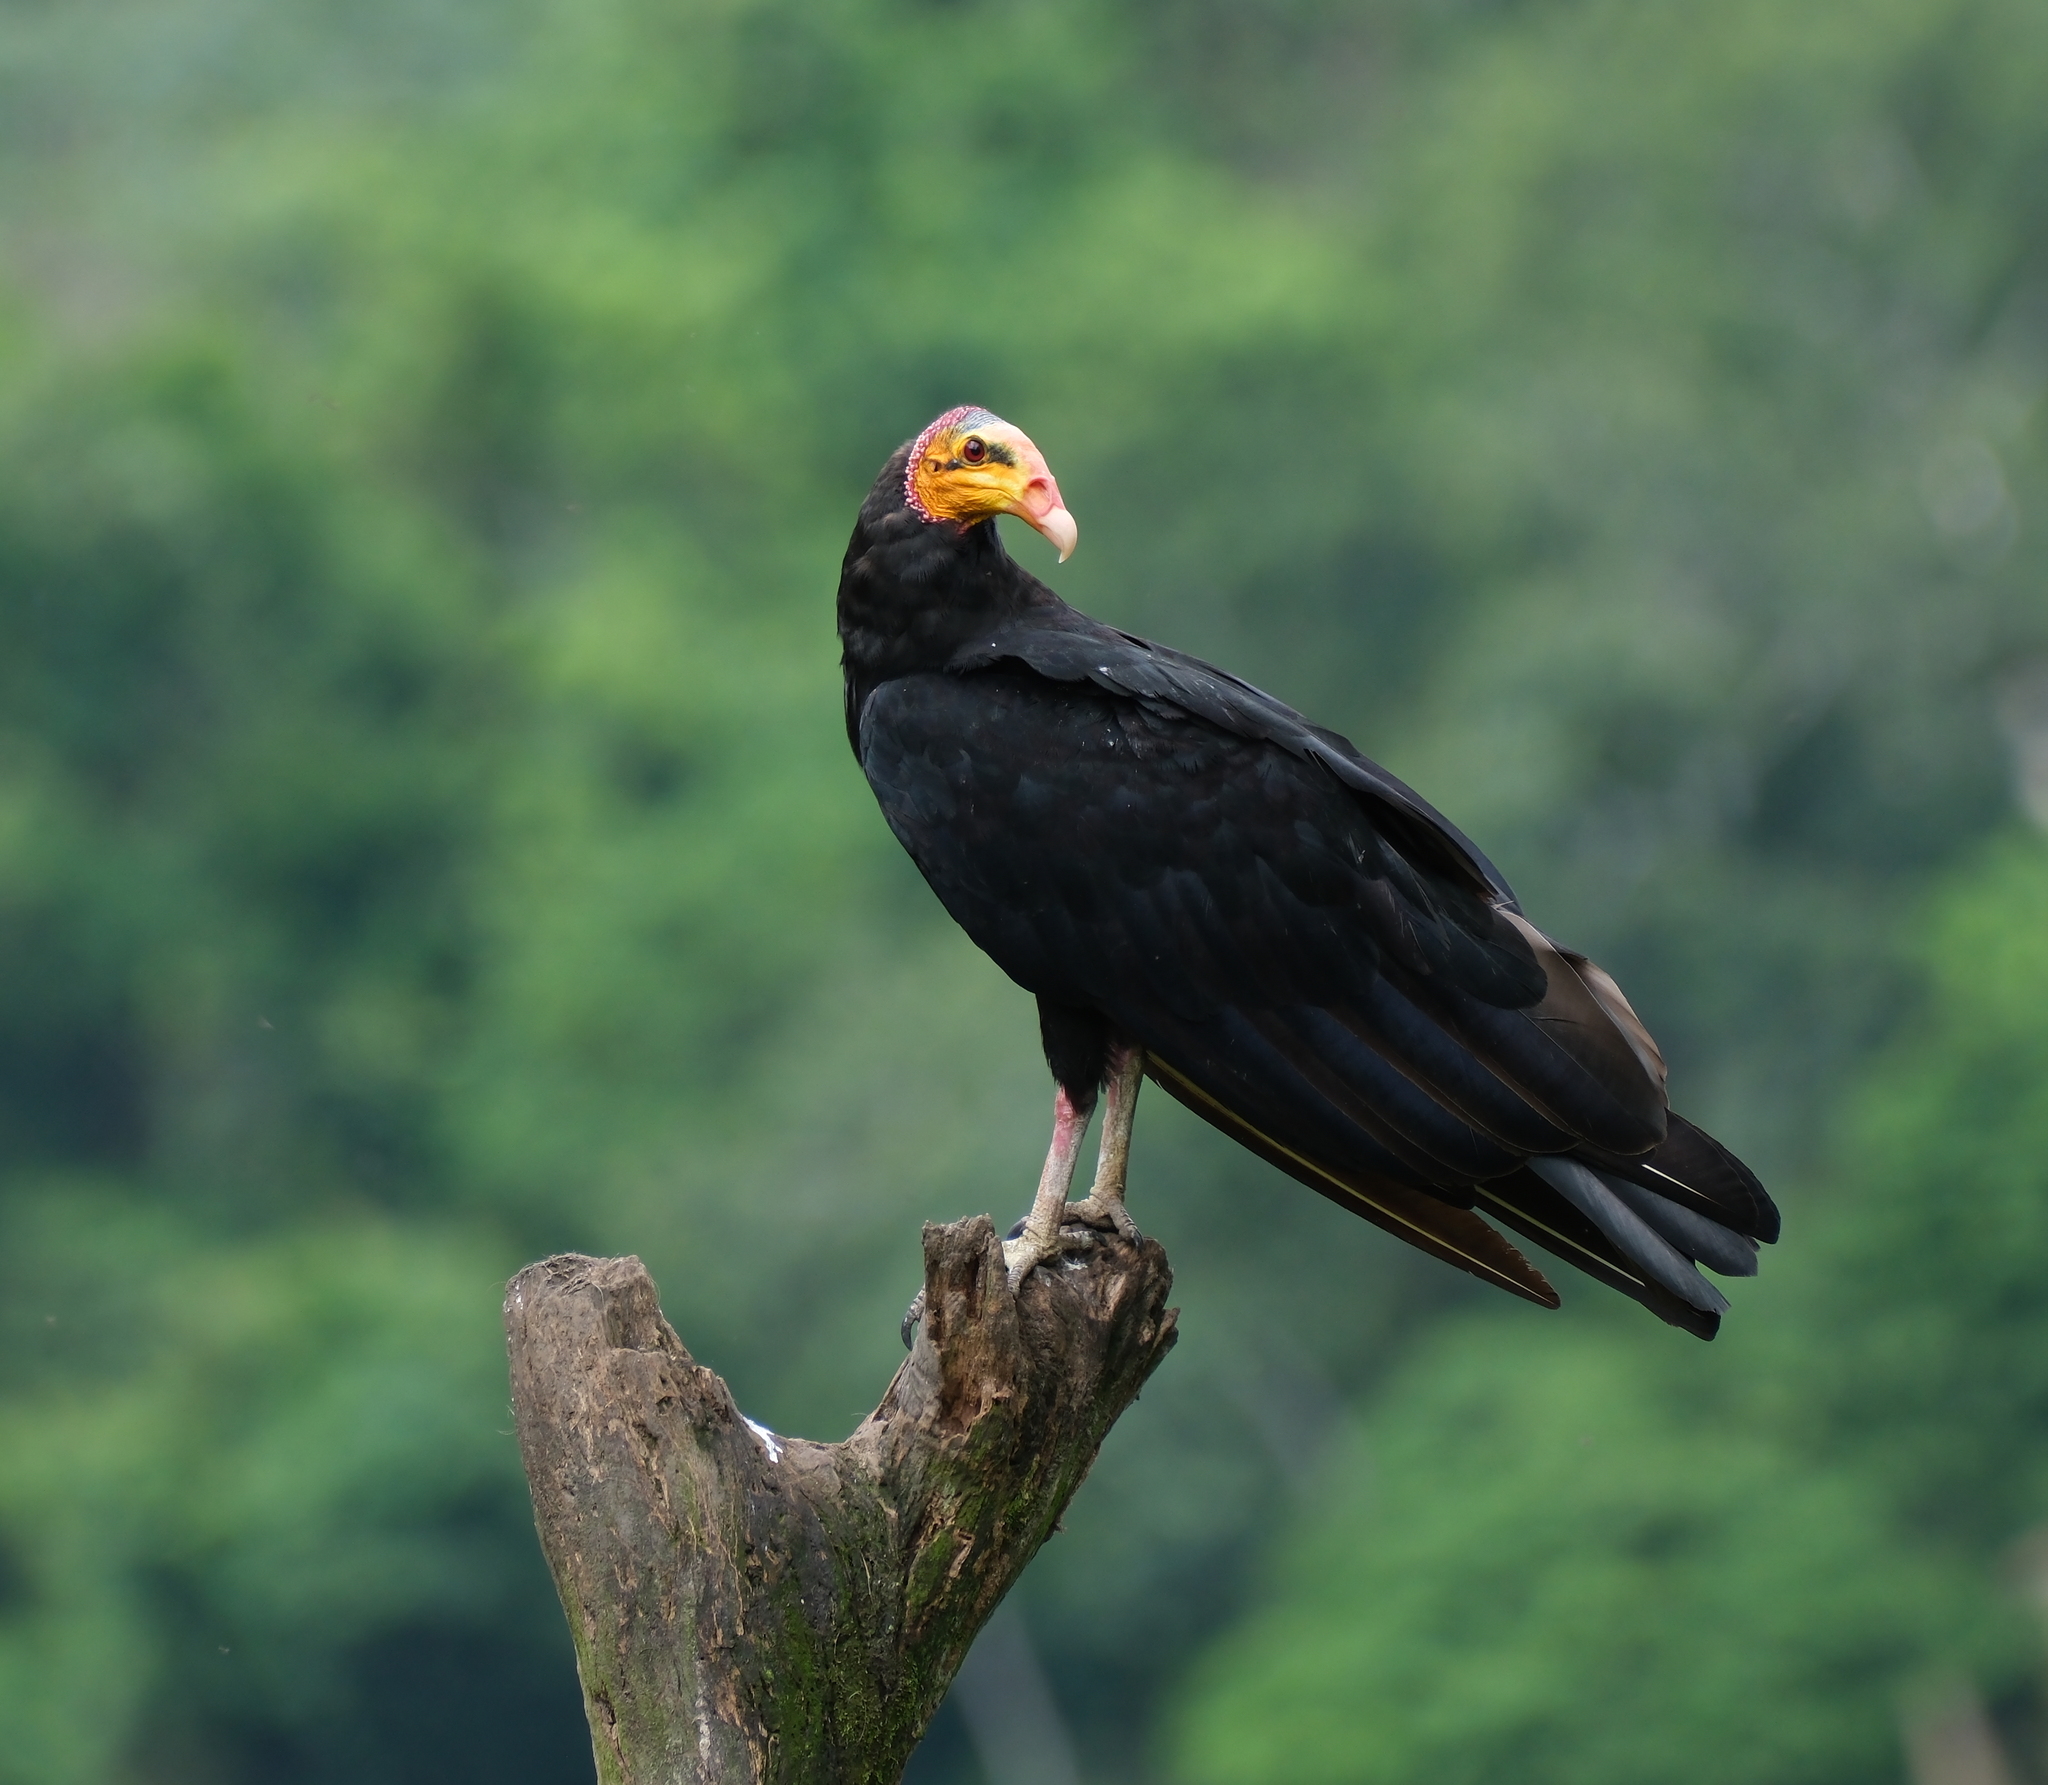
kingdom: Animalia
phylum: Chordata
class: Aves
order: Accipitriformes
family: Cathartidae
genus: Cathartes
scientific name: Cathartes melambrotus
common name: Greater yellow-headed vulture
